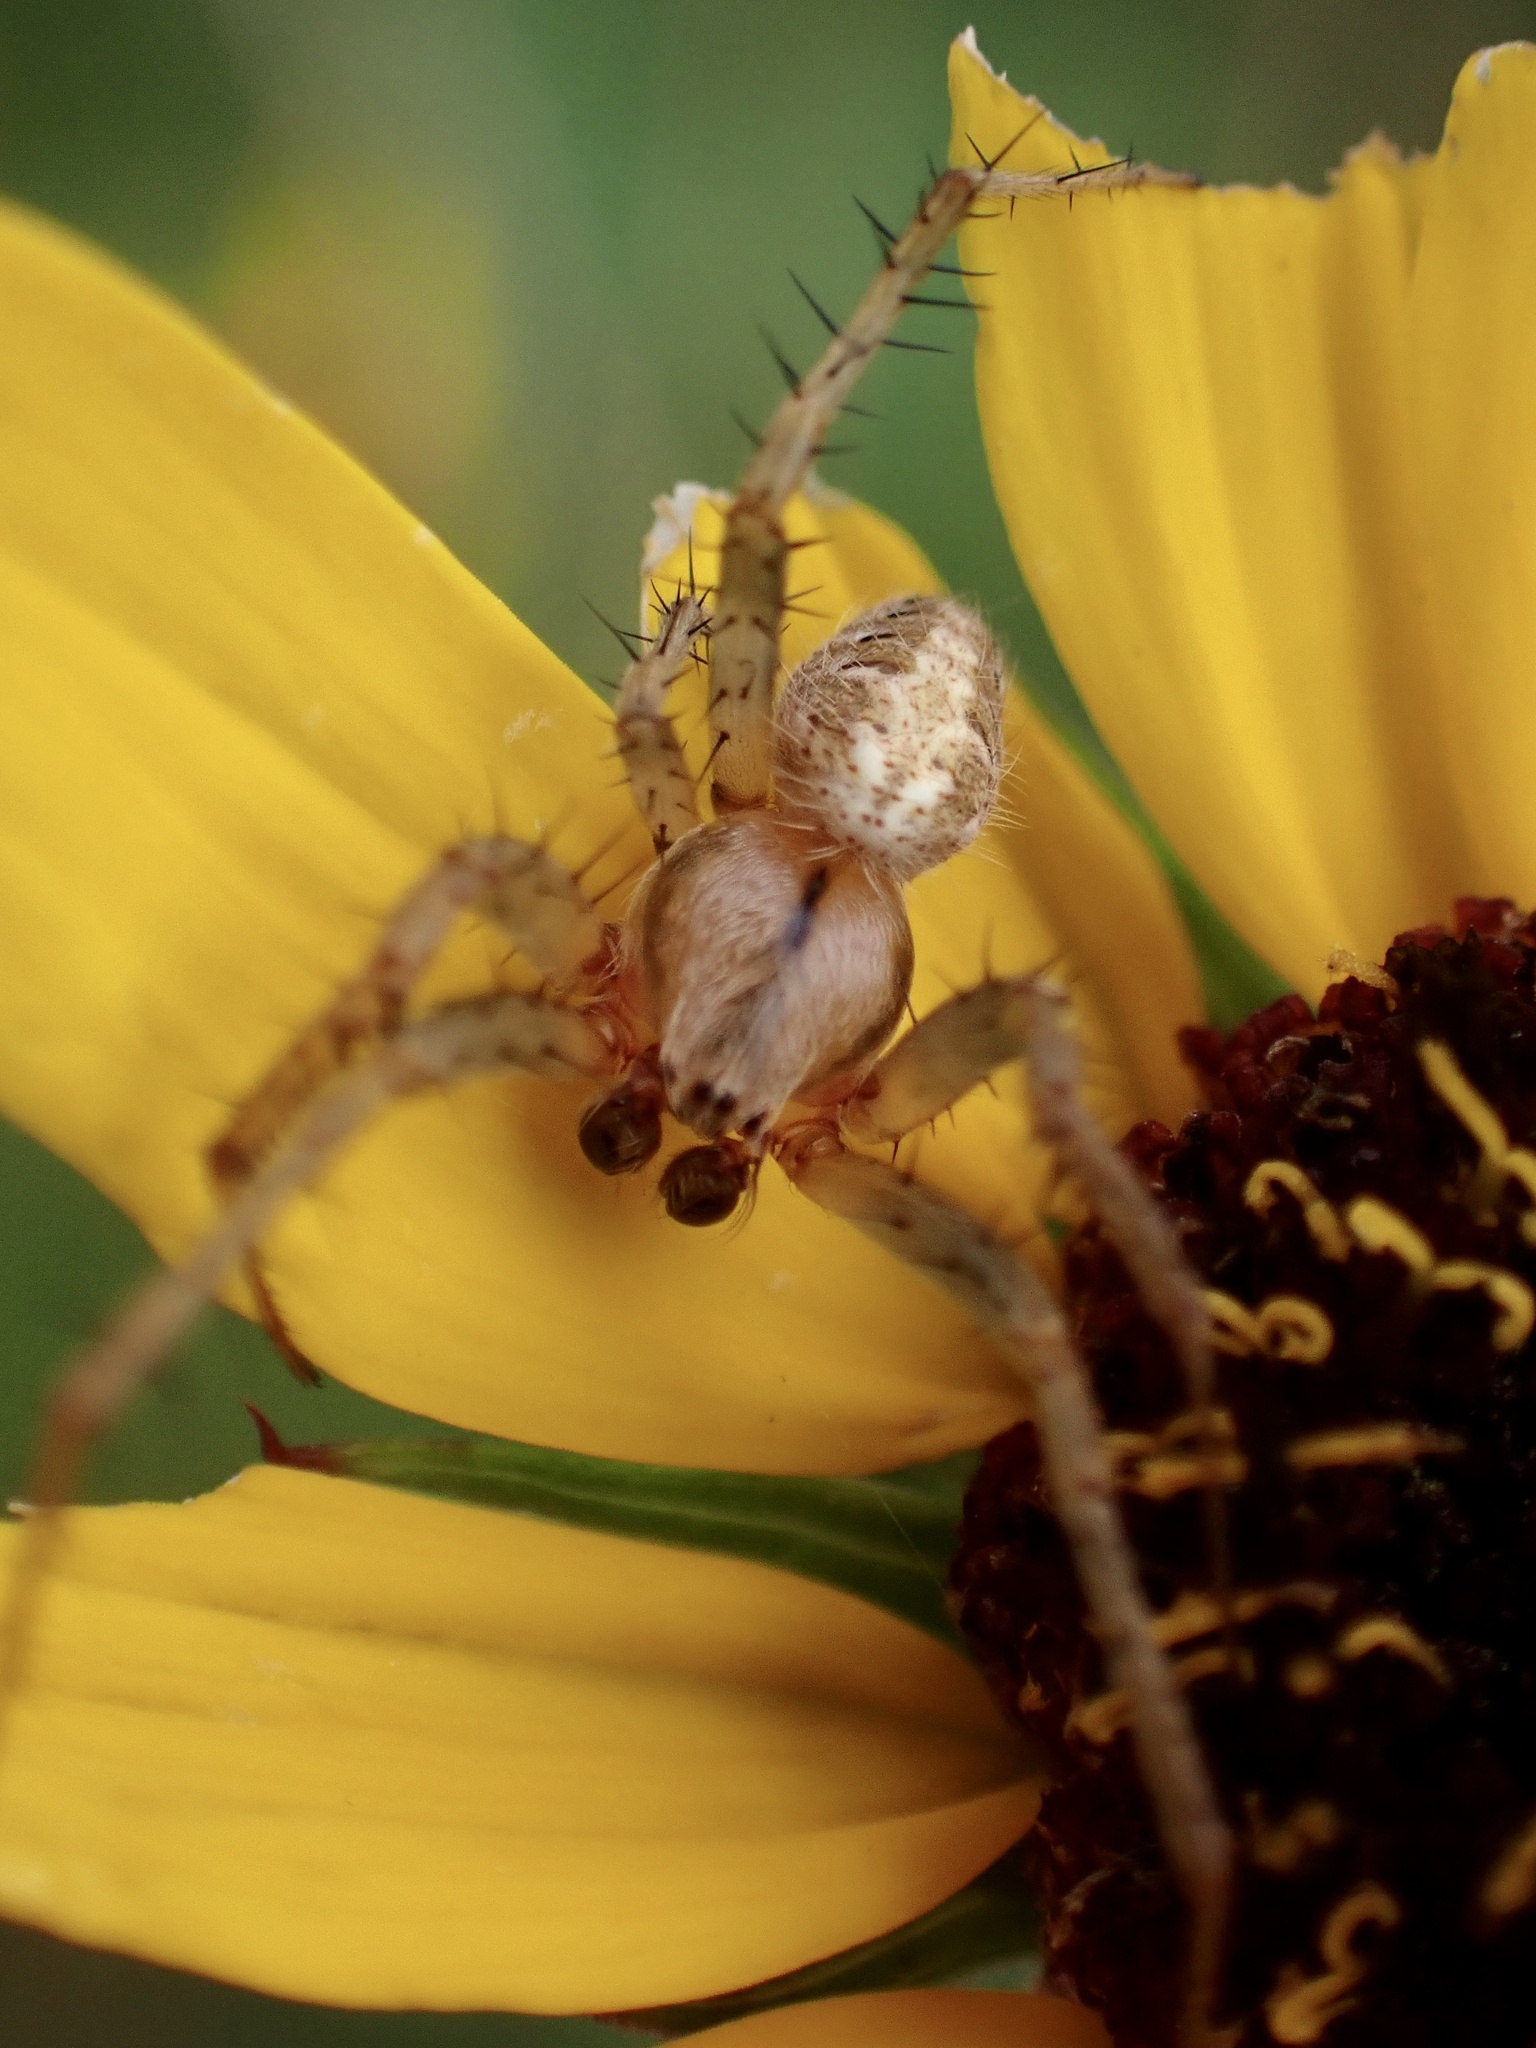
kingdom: Animalia
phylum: Arthropoda
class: Arachnida
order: Araneae
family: Araneidae
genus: Neoscona
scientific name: Neoscona arabesca
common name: Orb weavers
